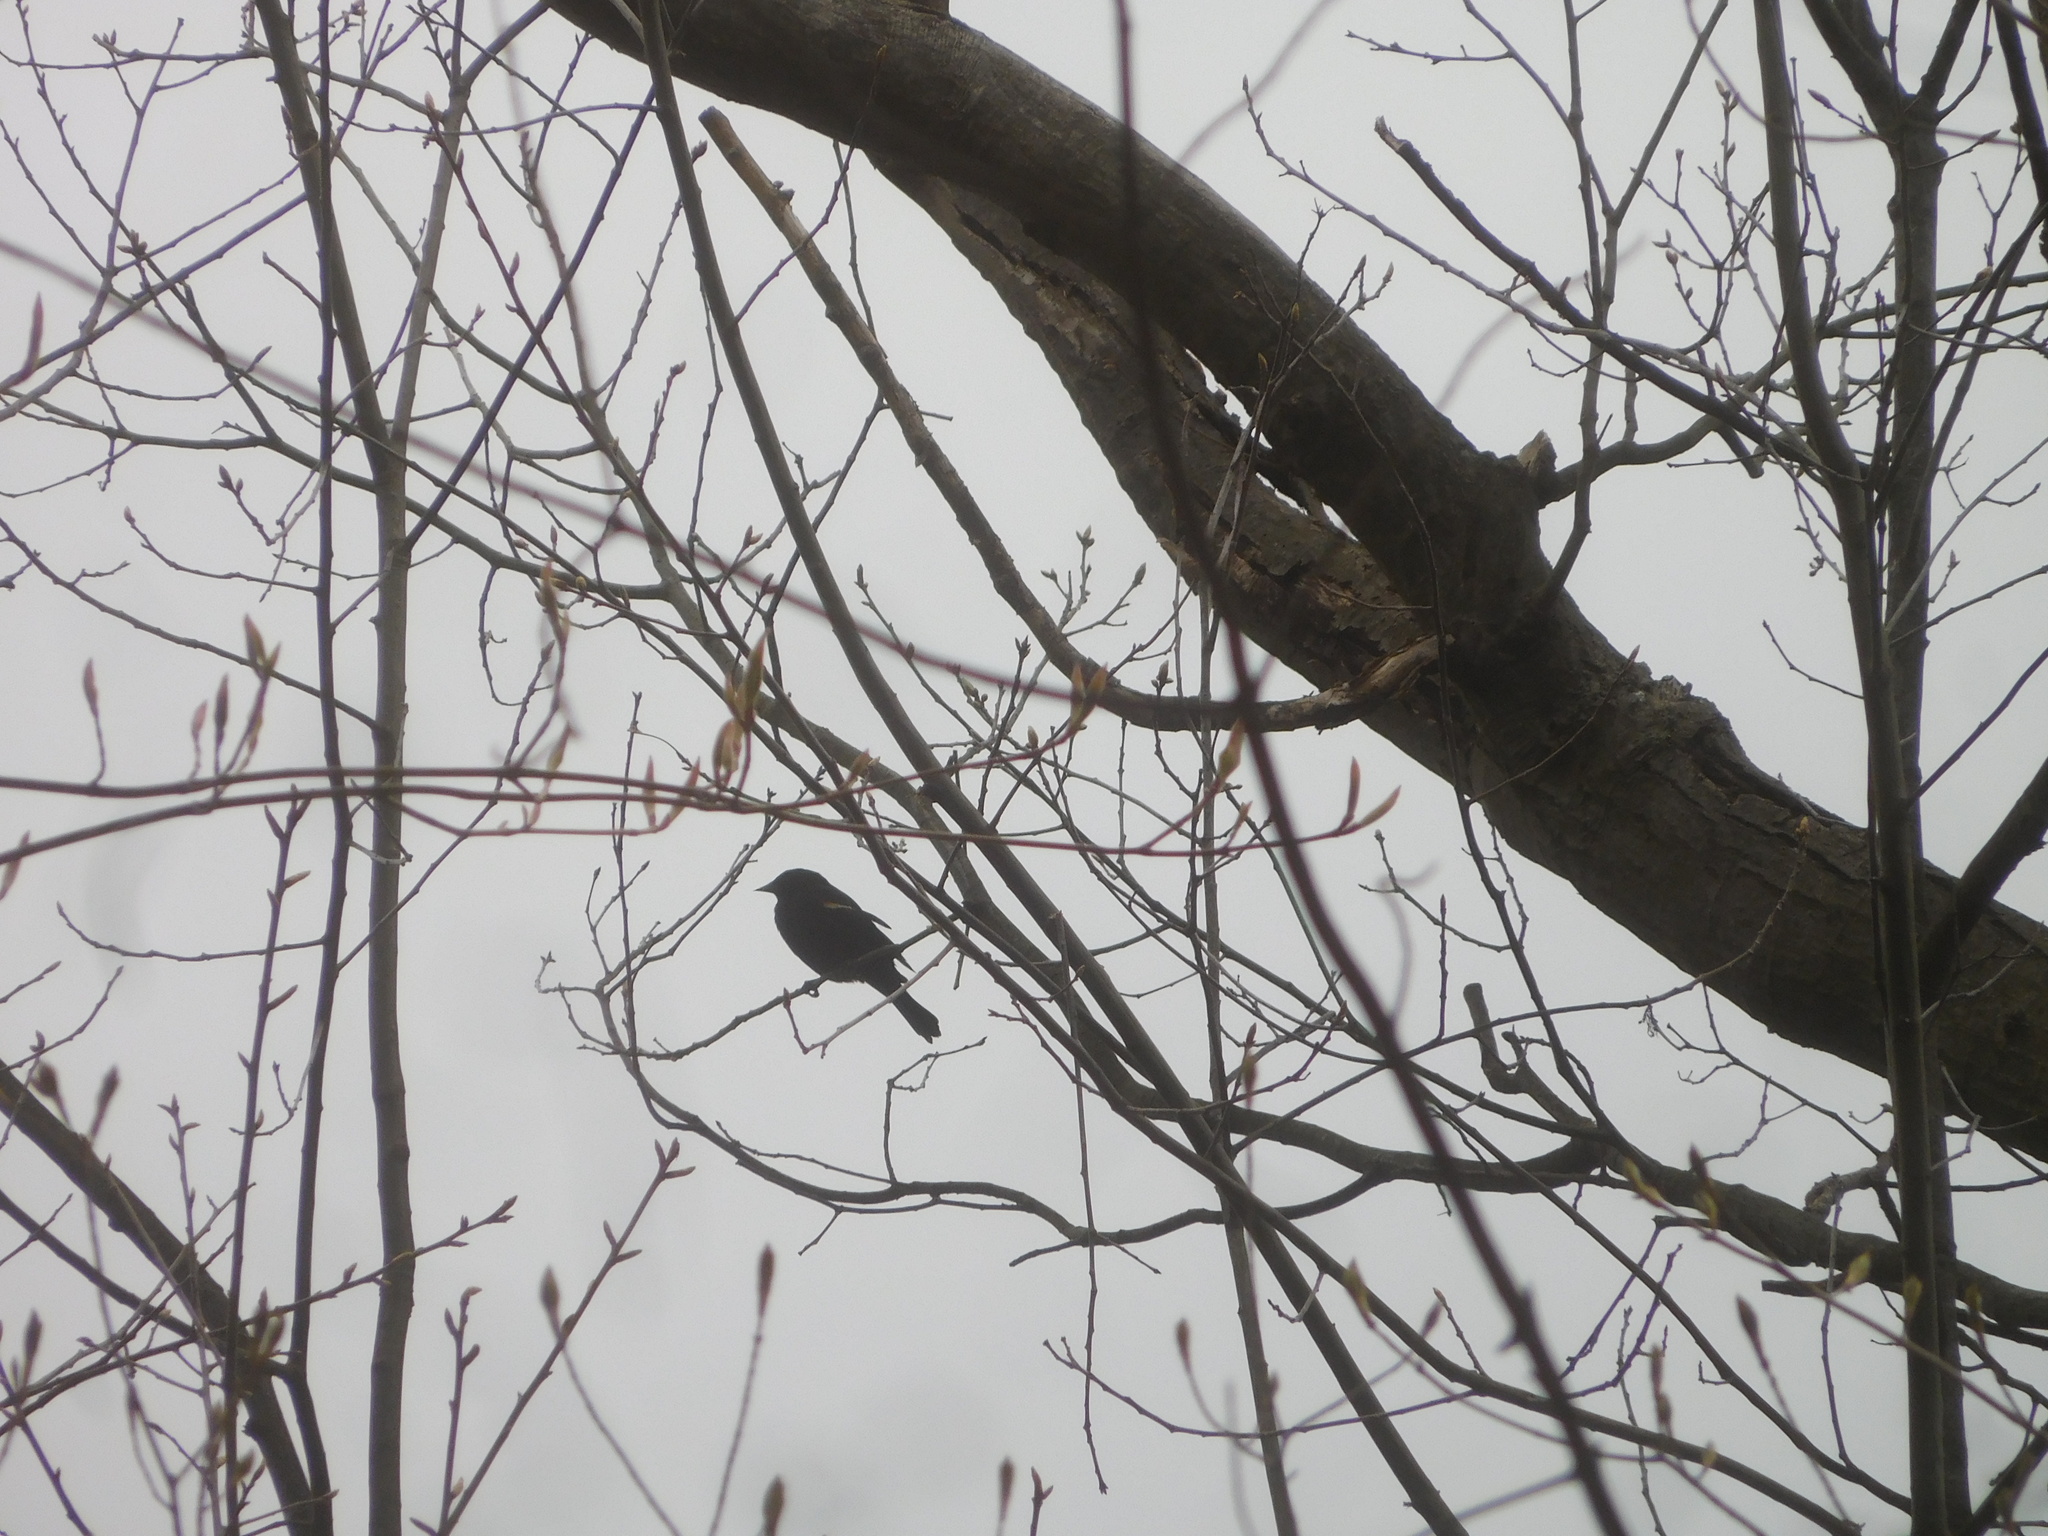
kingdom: Animalia
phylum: Chordata
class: Aves
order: Passeriformes
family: Icteridae
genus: Agelaius
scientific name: Agelaius phoeniceus
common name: Red-winged blackbird
